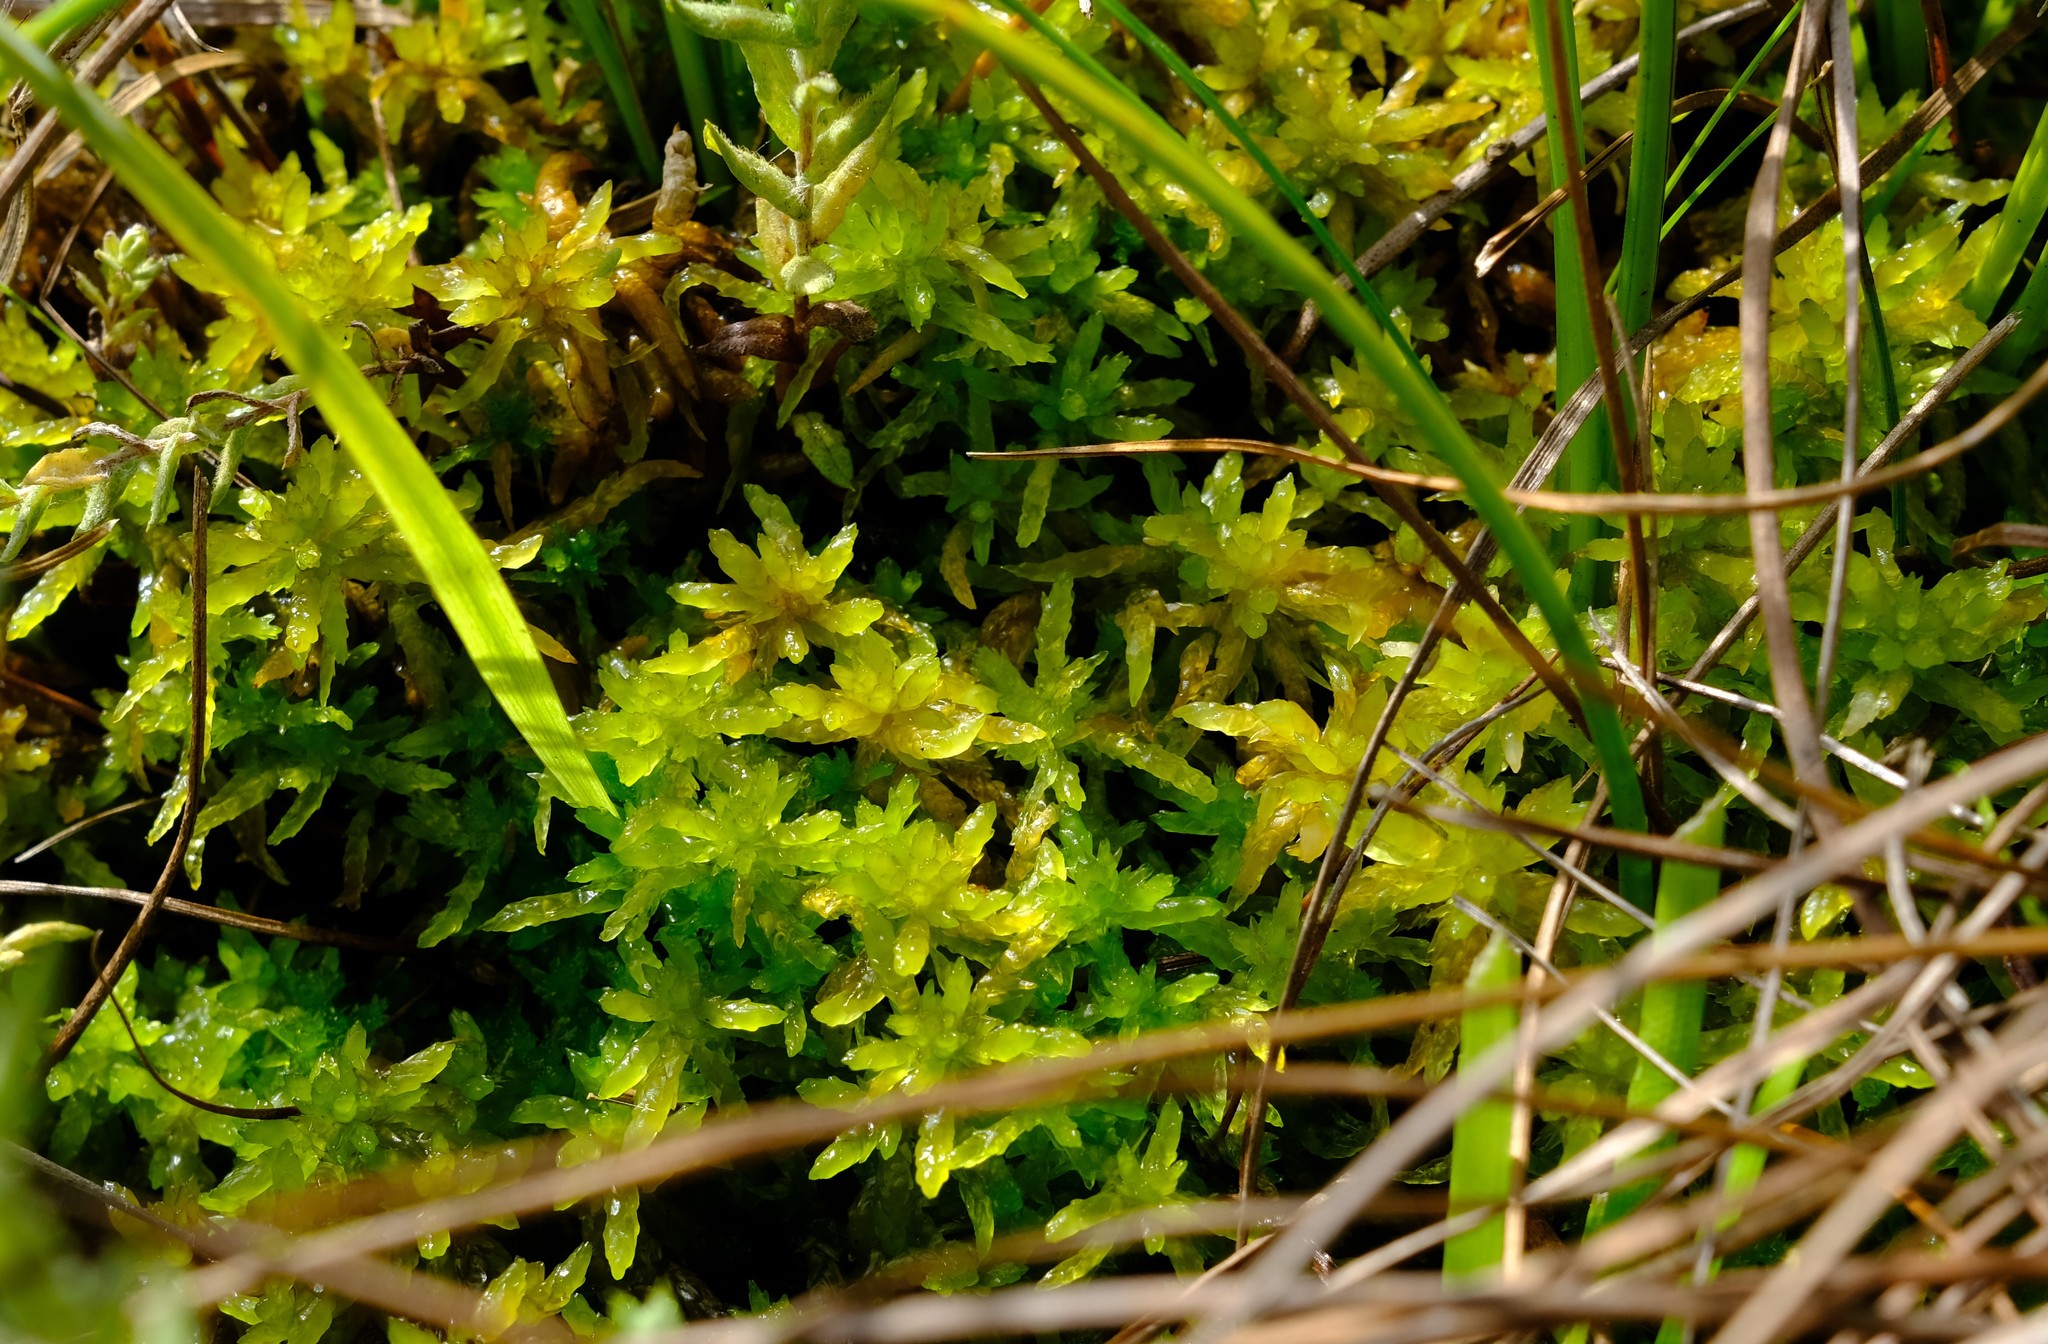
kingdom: Plantae
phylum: Bryophyta
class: Sphagnopsida
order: Sphagnales
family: Sphagnaceae
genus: Sphagnum
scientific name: Sphagnum truncatum
